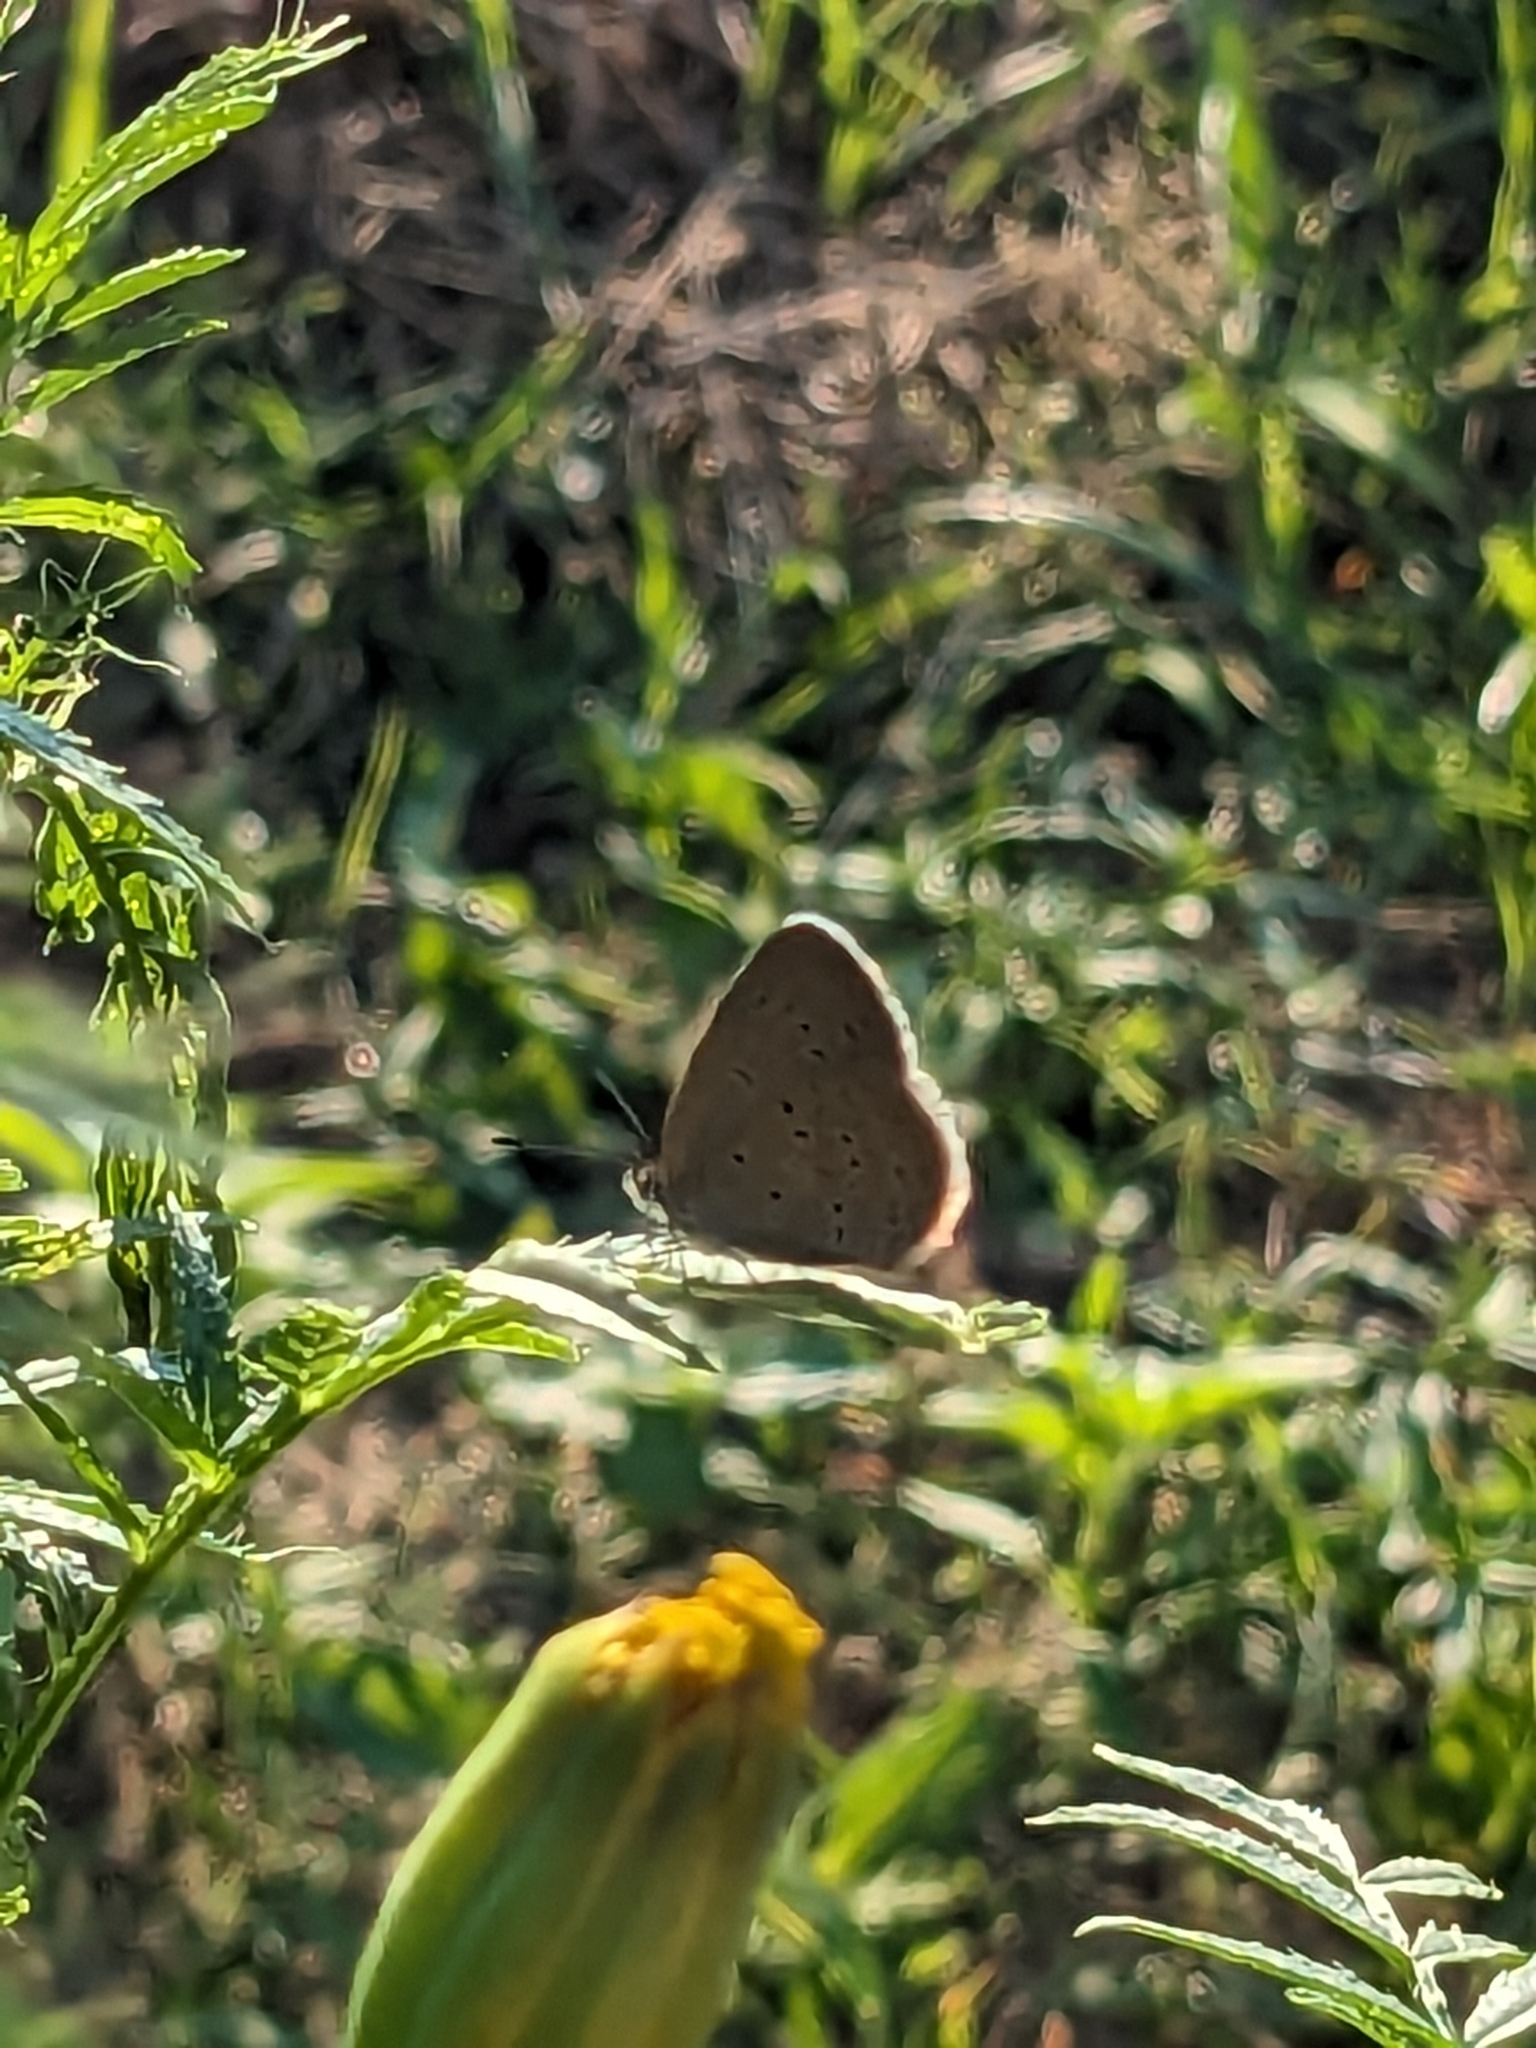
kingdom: Animalia
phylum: Arthropoda
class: Insecta
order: Lepidoptera
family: Lycaenidae
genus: Zizina
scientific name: Zizina otis
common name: Lesser grass blue
